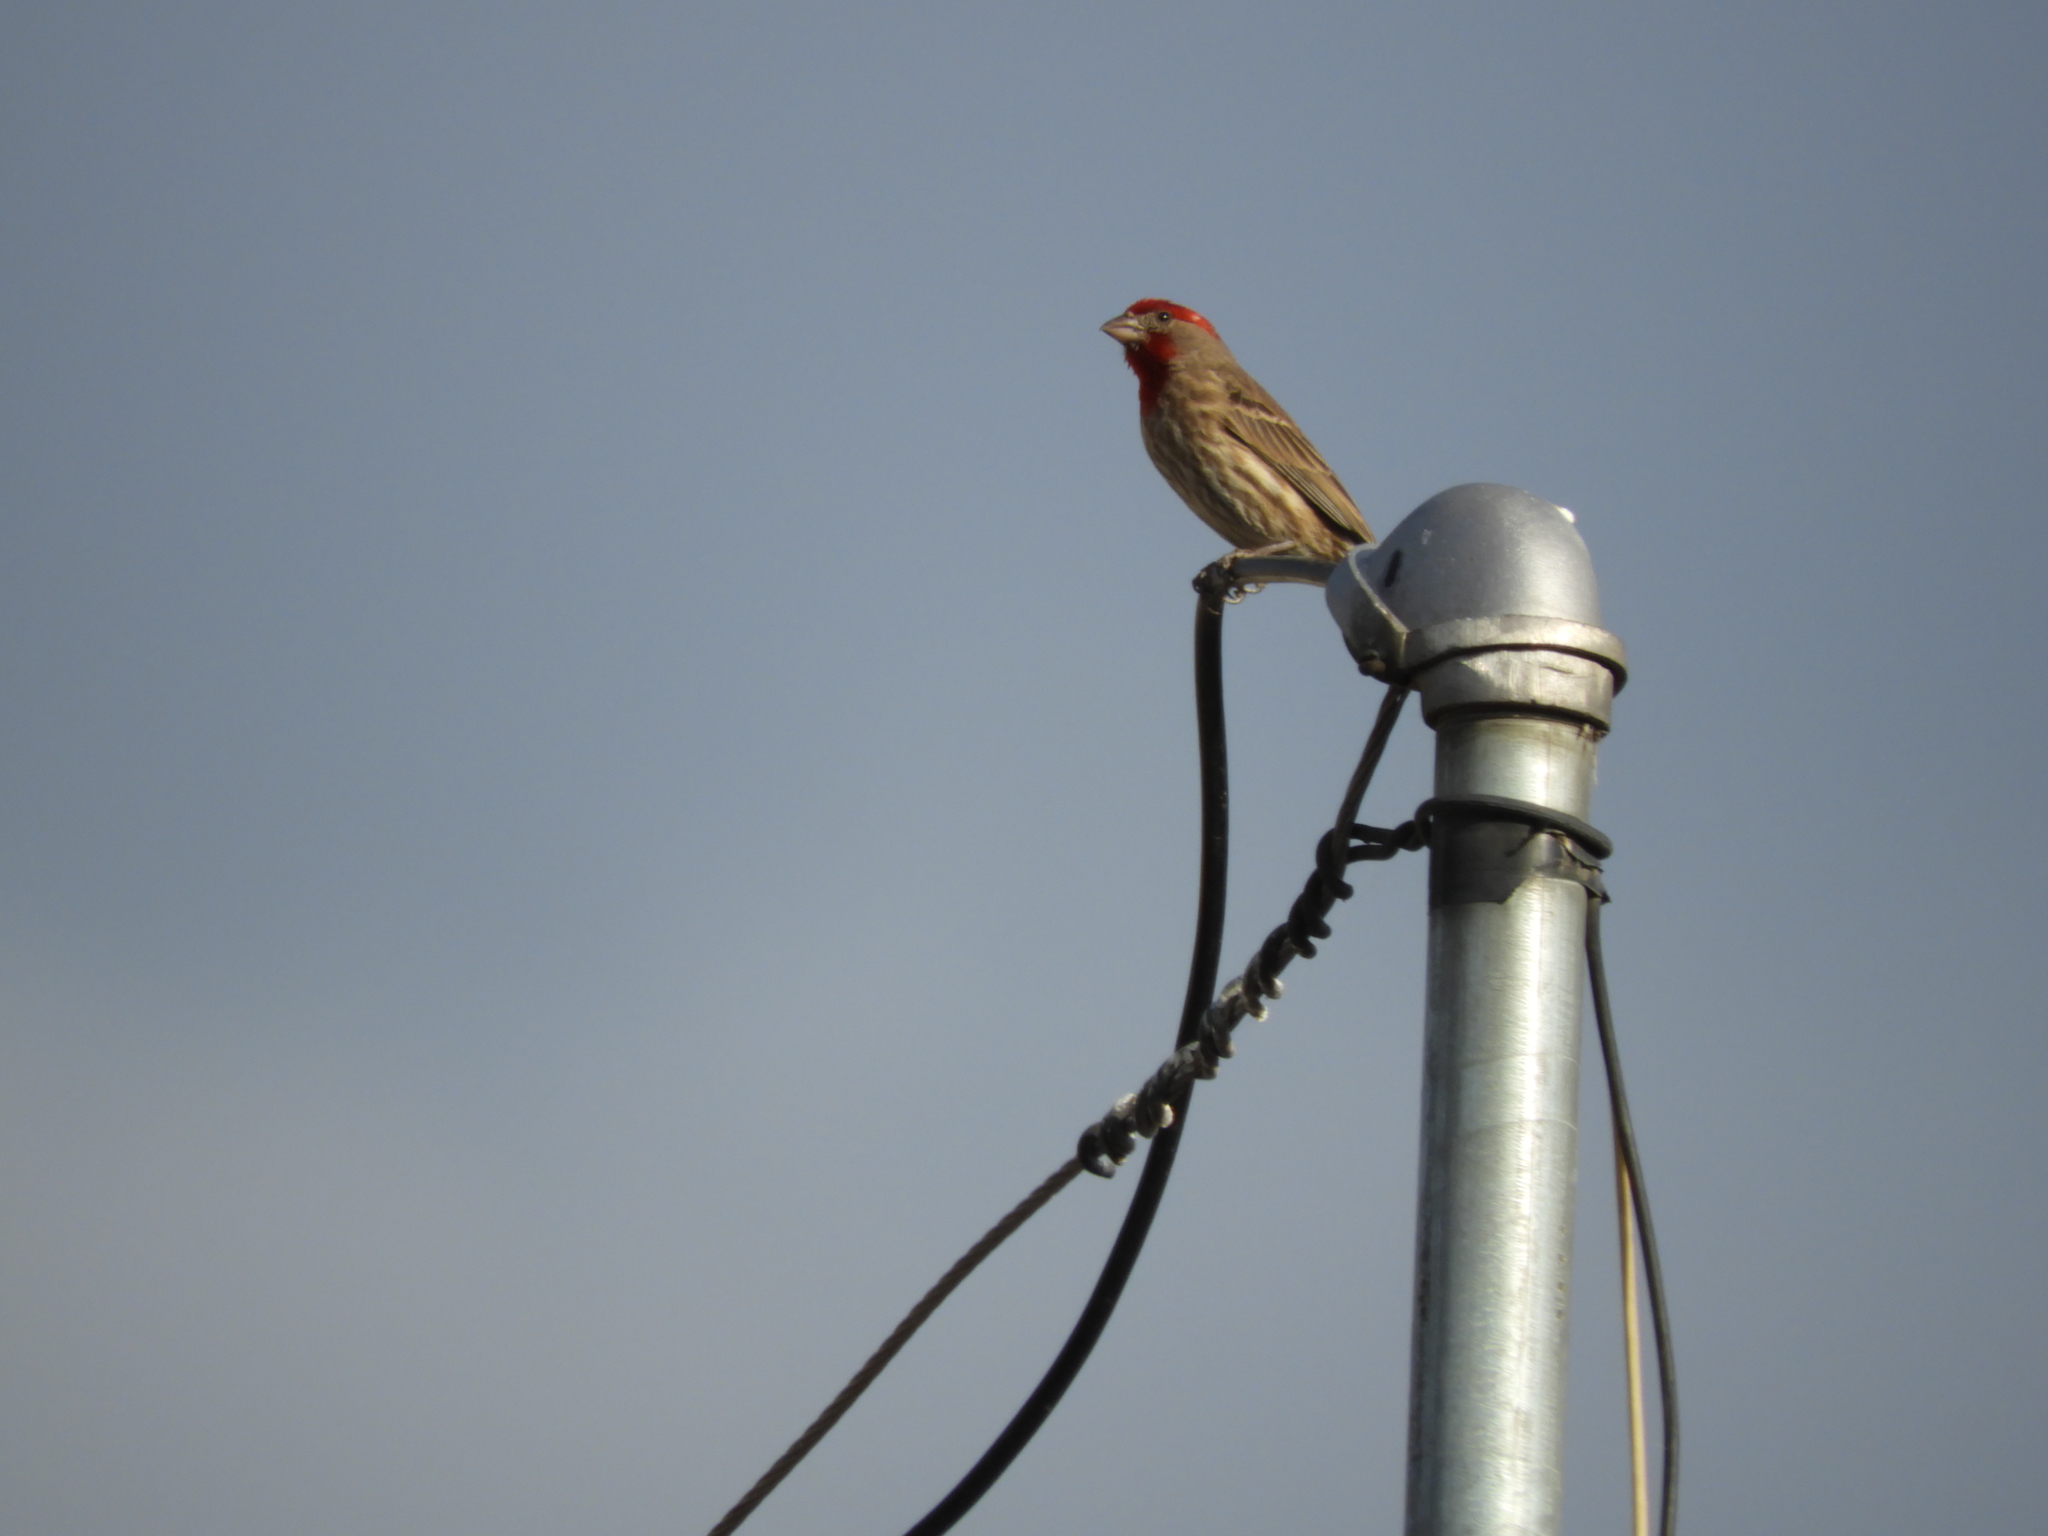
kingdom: Animalia
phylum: Chordata
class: Aves
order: Passeriformes
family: Fringillidae
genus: Haemorhous
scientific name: Haemorhous mexicanus
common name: House finch
